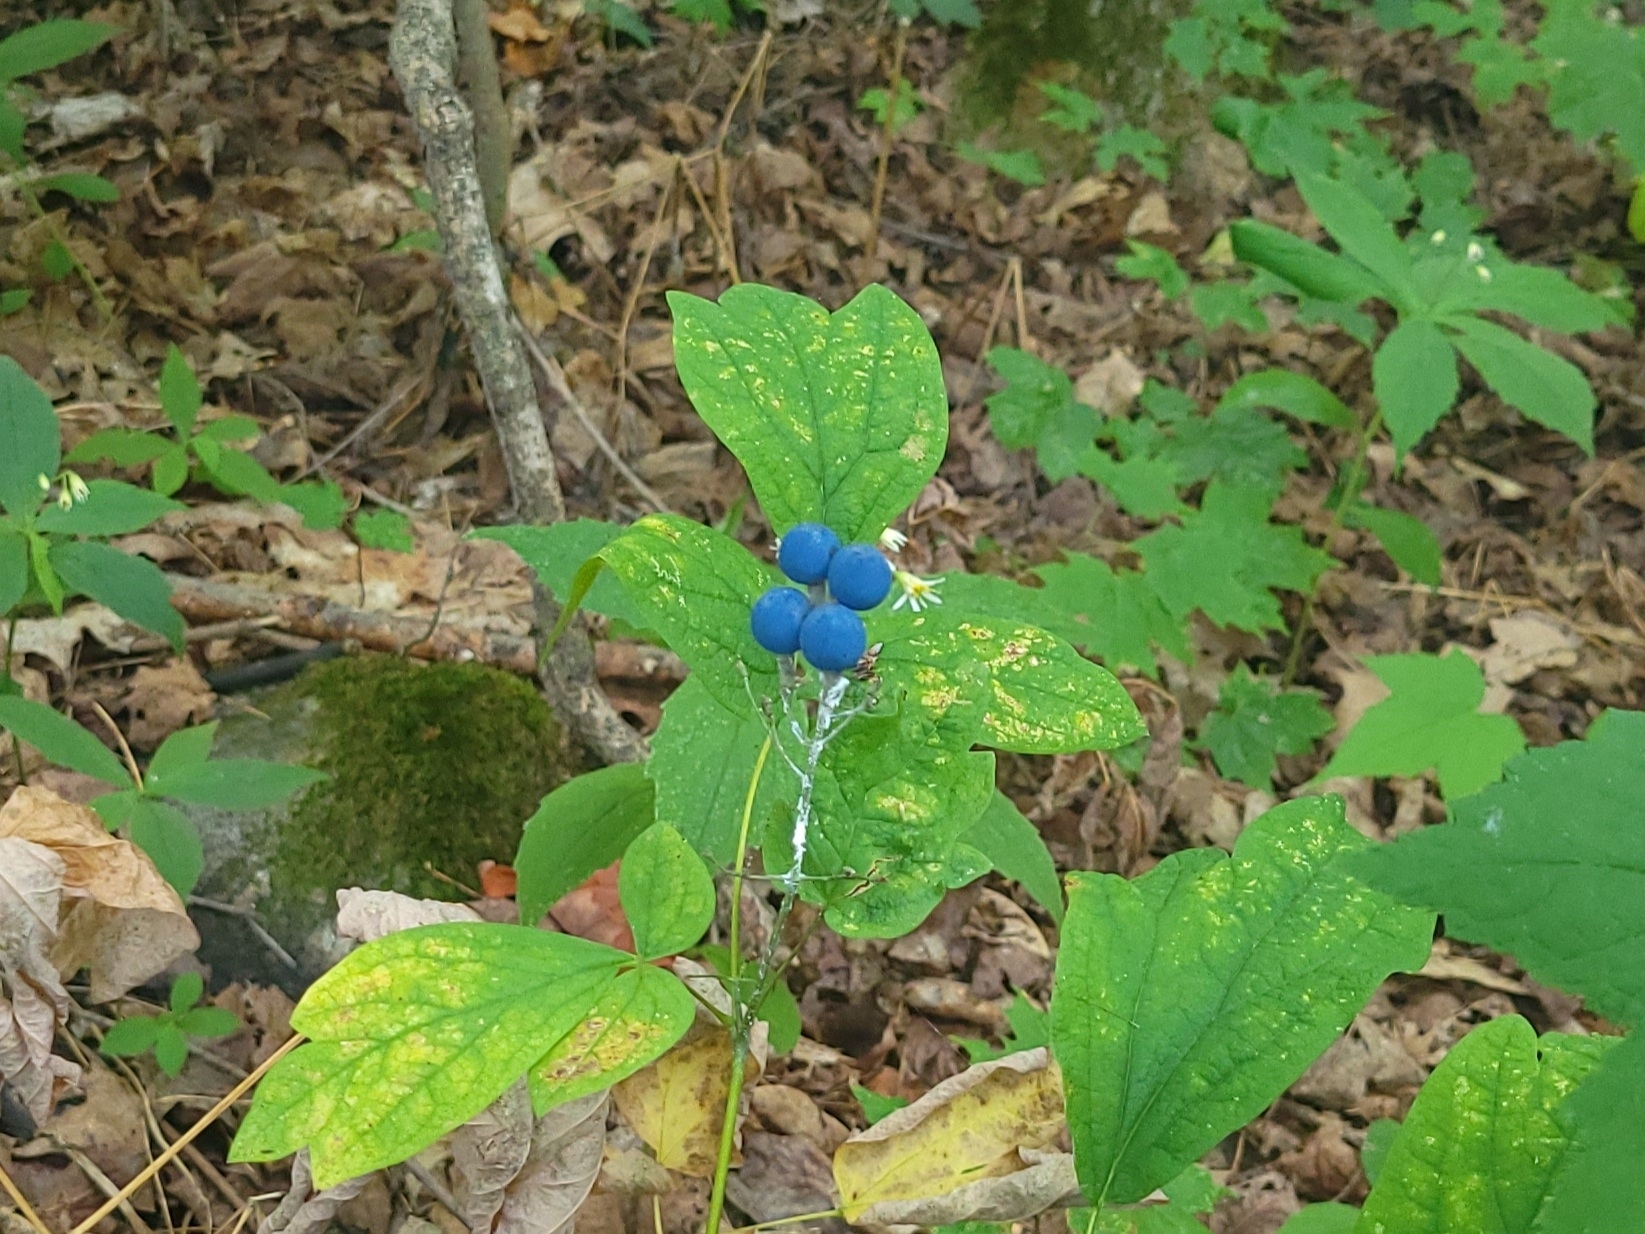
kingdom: Plantae
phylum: Tracheophyta
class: Magnoliopsida
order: Ranunculales
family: Berberidaceae
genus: Caulophyllum
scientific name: Caulophyllum thalictroides
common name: Blue cohosh
